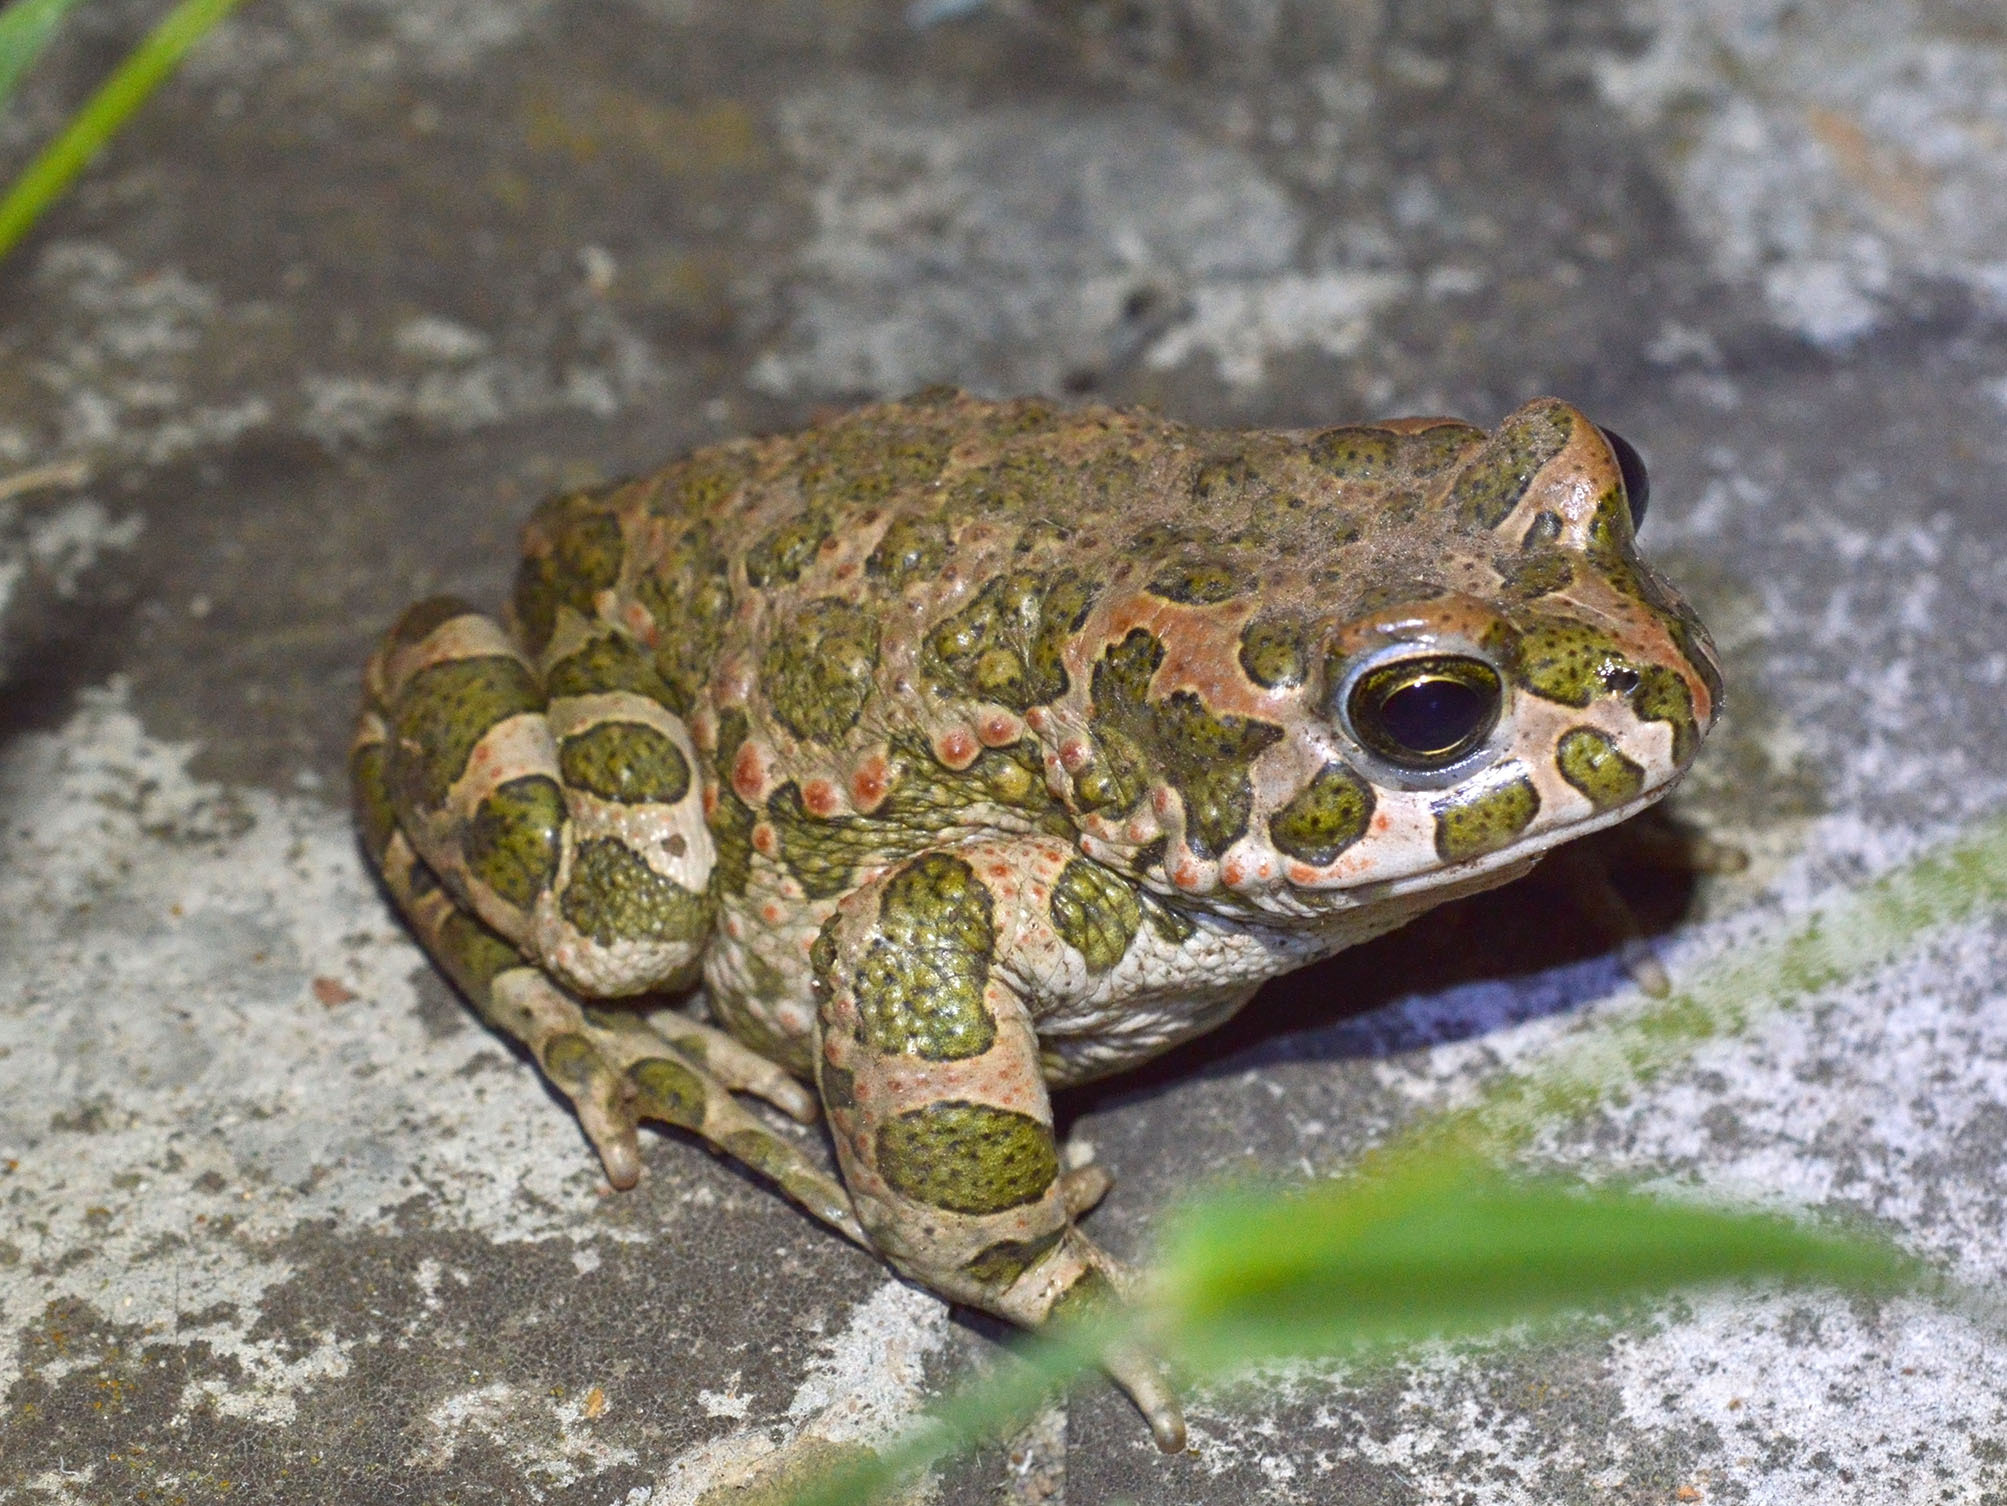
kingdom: Animalia
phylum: Chordata
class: Amphibia
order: Anura
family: Bufonidae
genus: Bufotes
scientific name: Bufotes viridis
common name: European green toad
